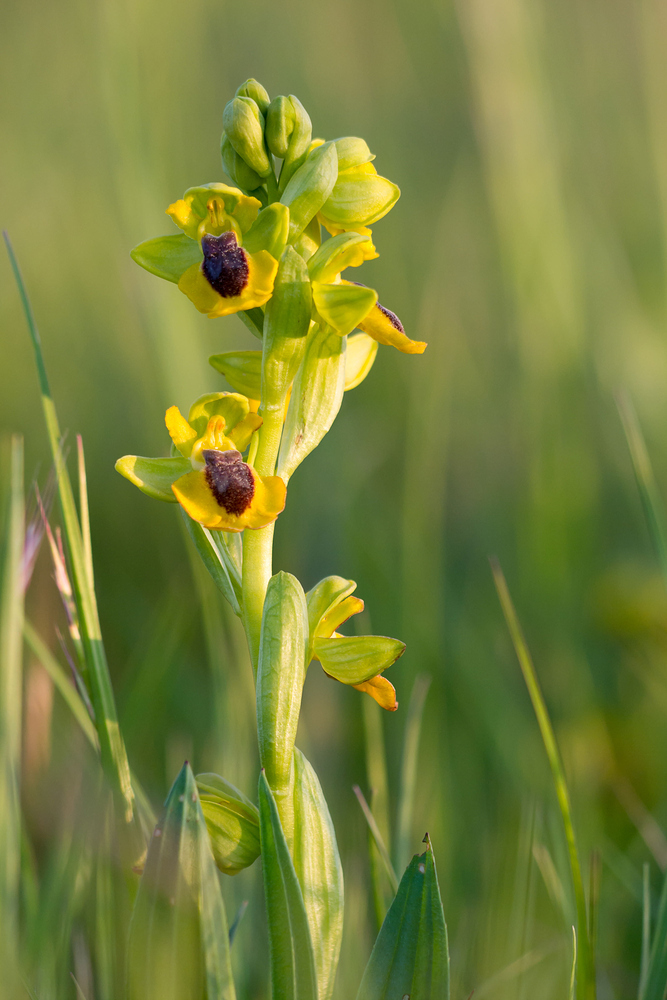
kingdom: Plantae
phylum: Tracheophyta
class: Liliopsida
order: Asparagales
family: Orchidaceae
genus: Ophrys
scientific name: Ophrys lutea
